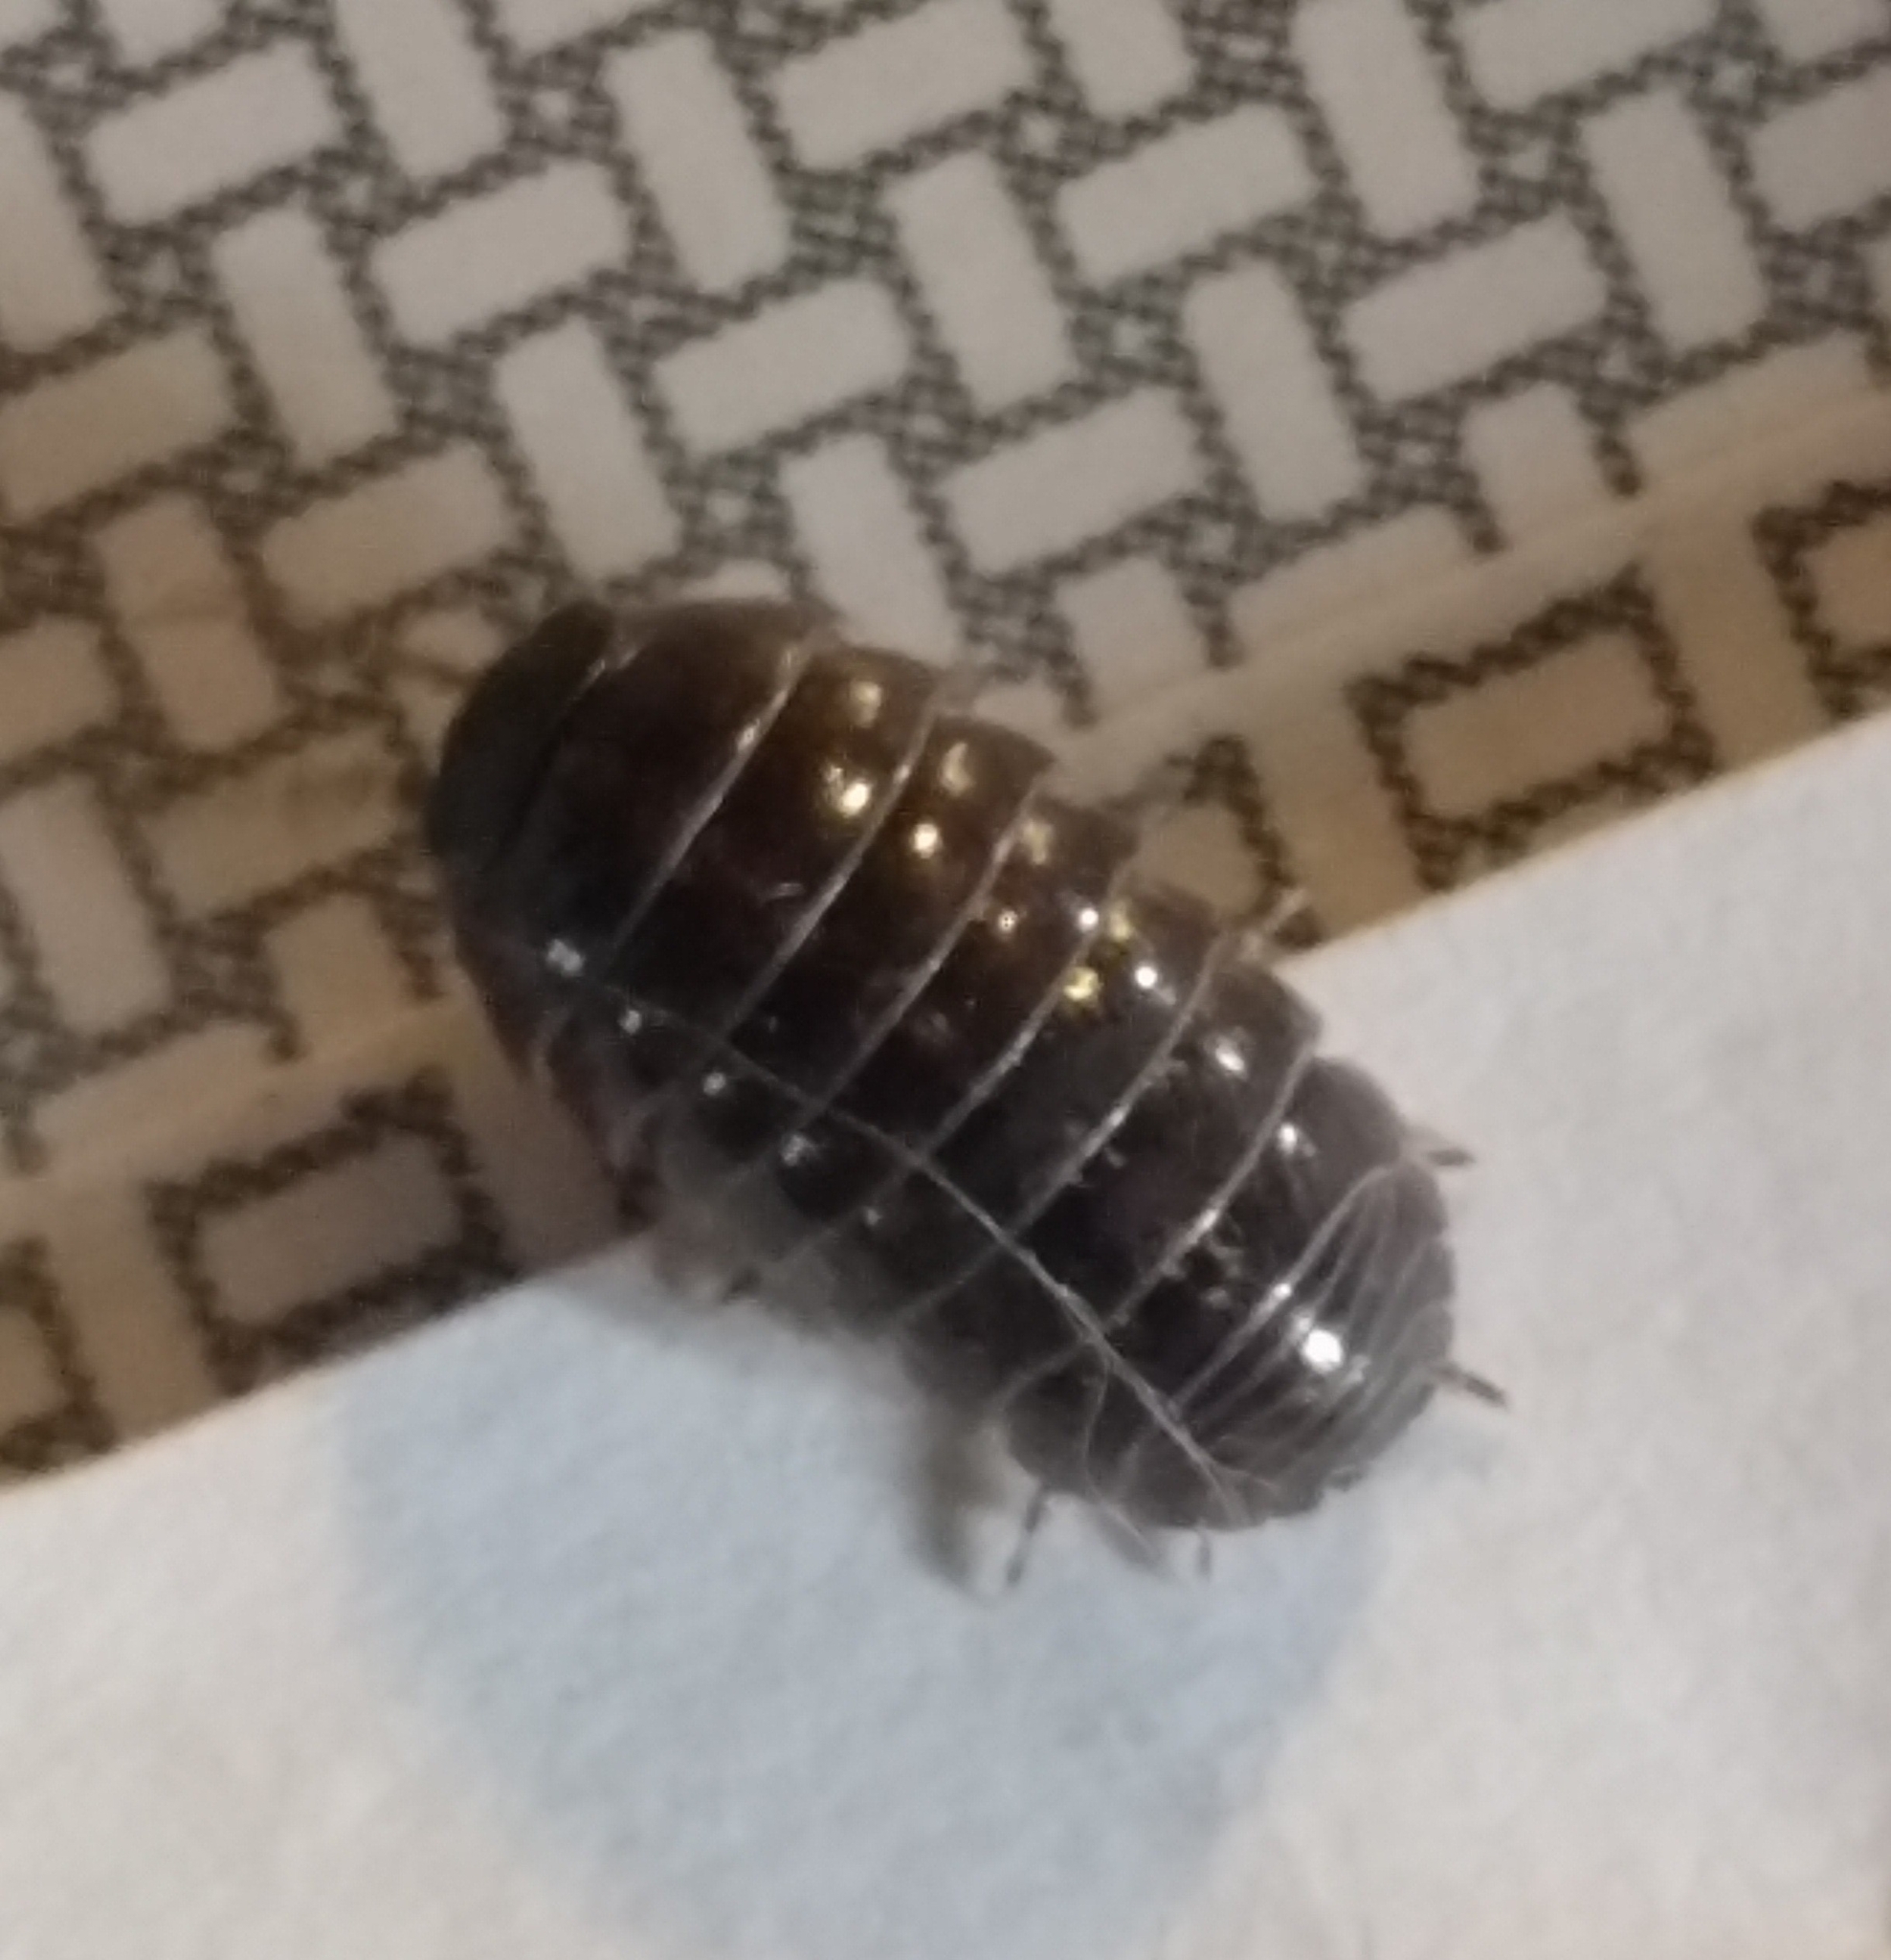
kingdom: Animalia
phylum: Arthropoda
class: Malacostraca
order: Isopoda
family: Armadillidiidae
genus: Armadillidium
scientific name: Armadillidium vulgare
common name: Common pill woodlouse
